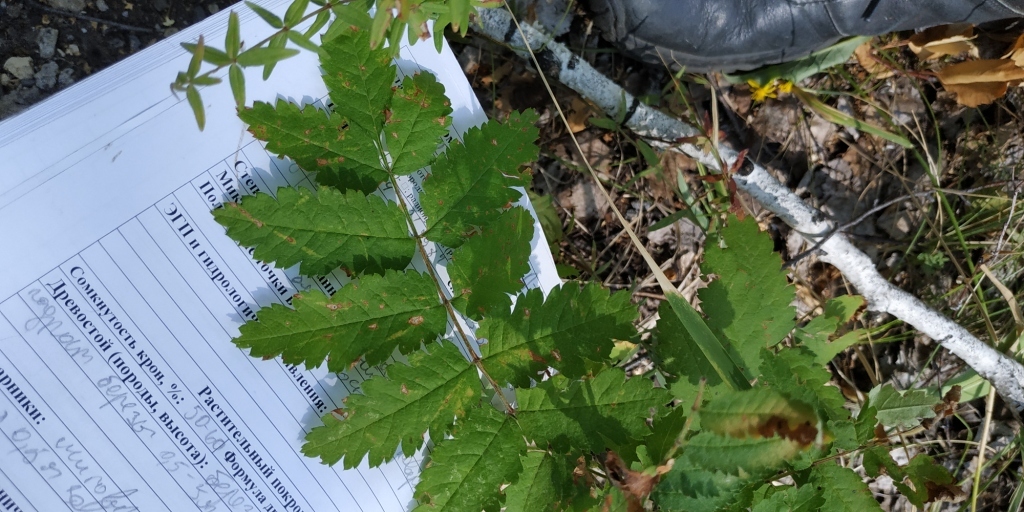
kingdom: Plantae
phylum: Tracheophyta
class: Magnoliopsida
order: Rosales
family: Rosaceae
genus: Sorbus
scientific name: Sorbus aucuparia
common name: Rowan
